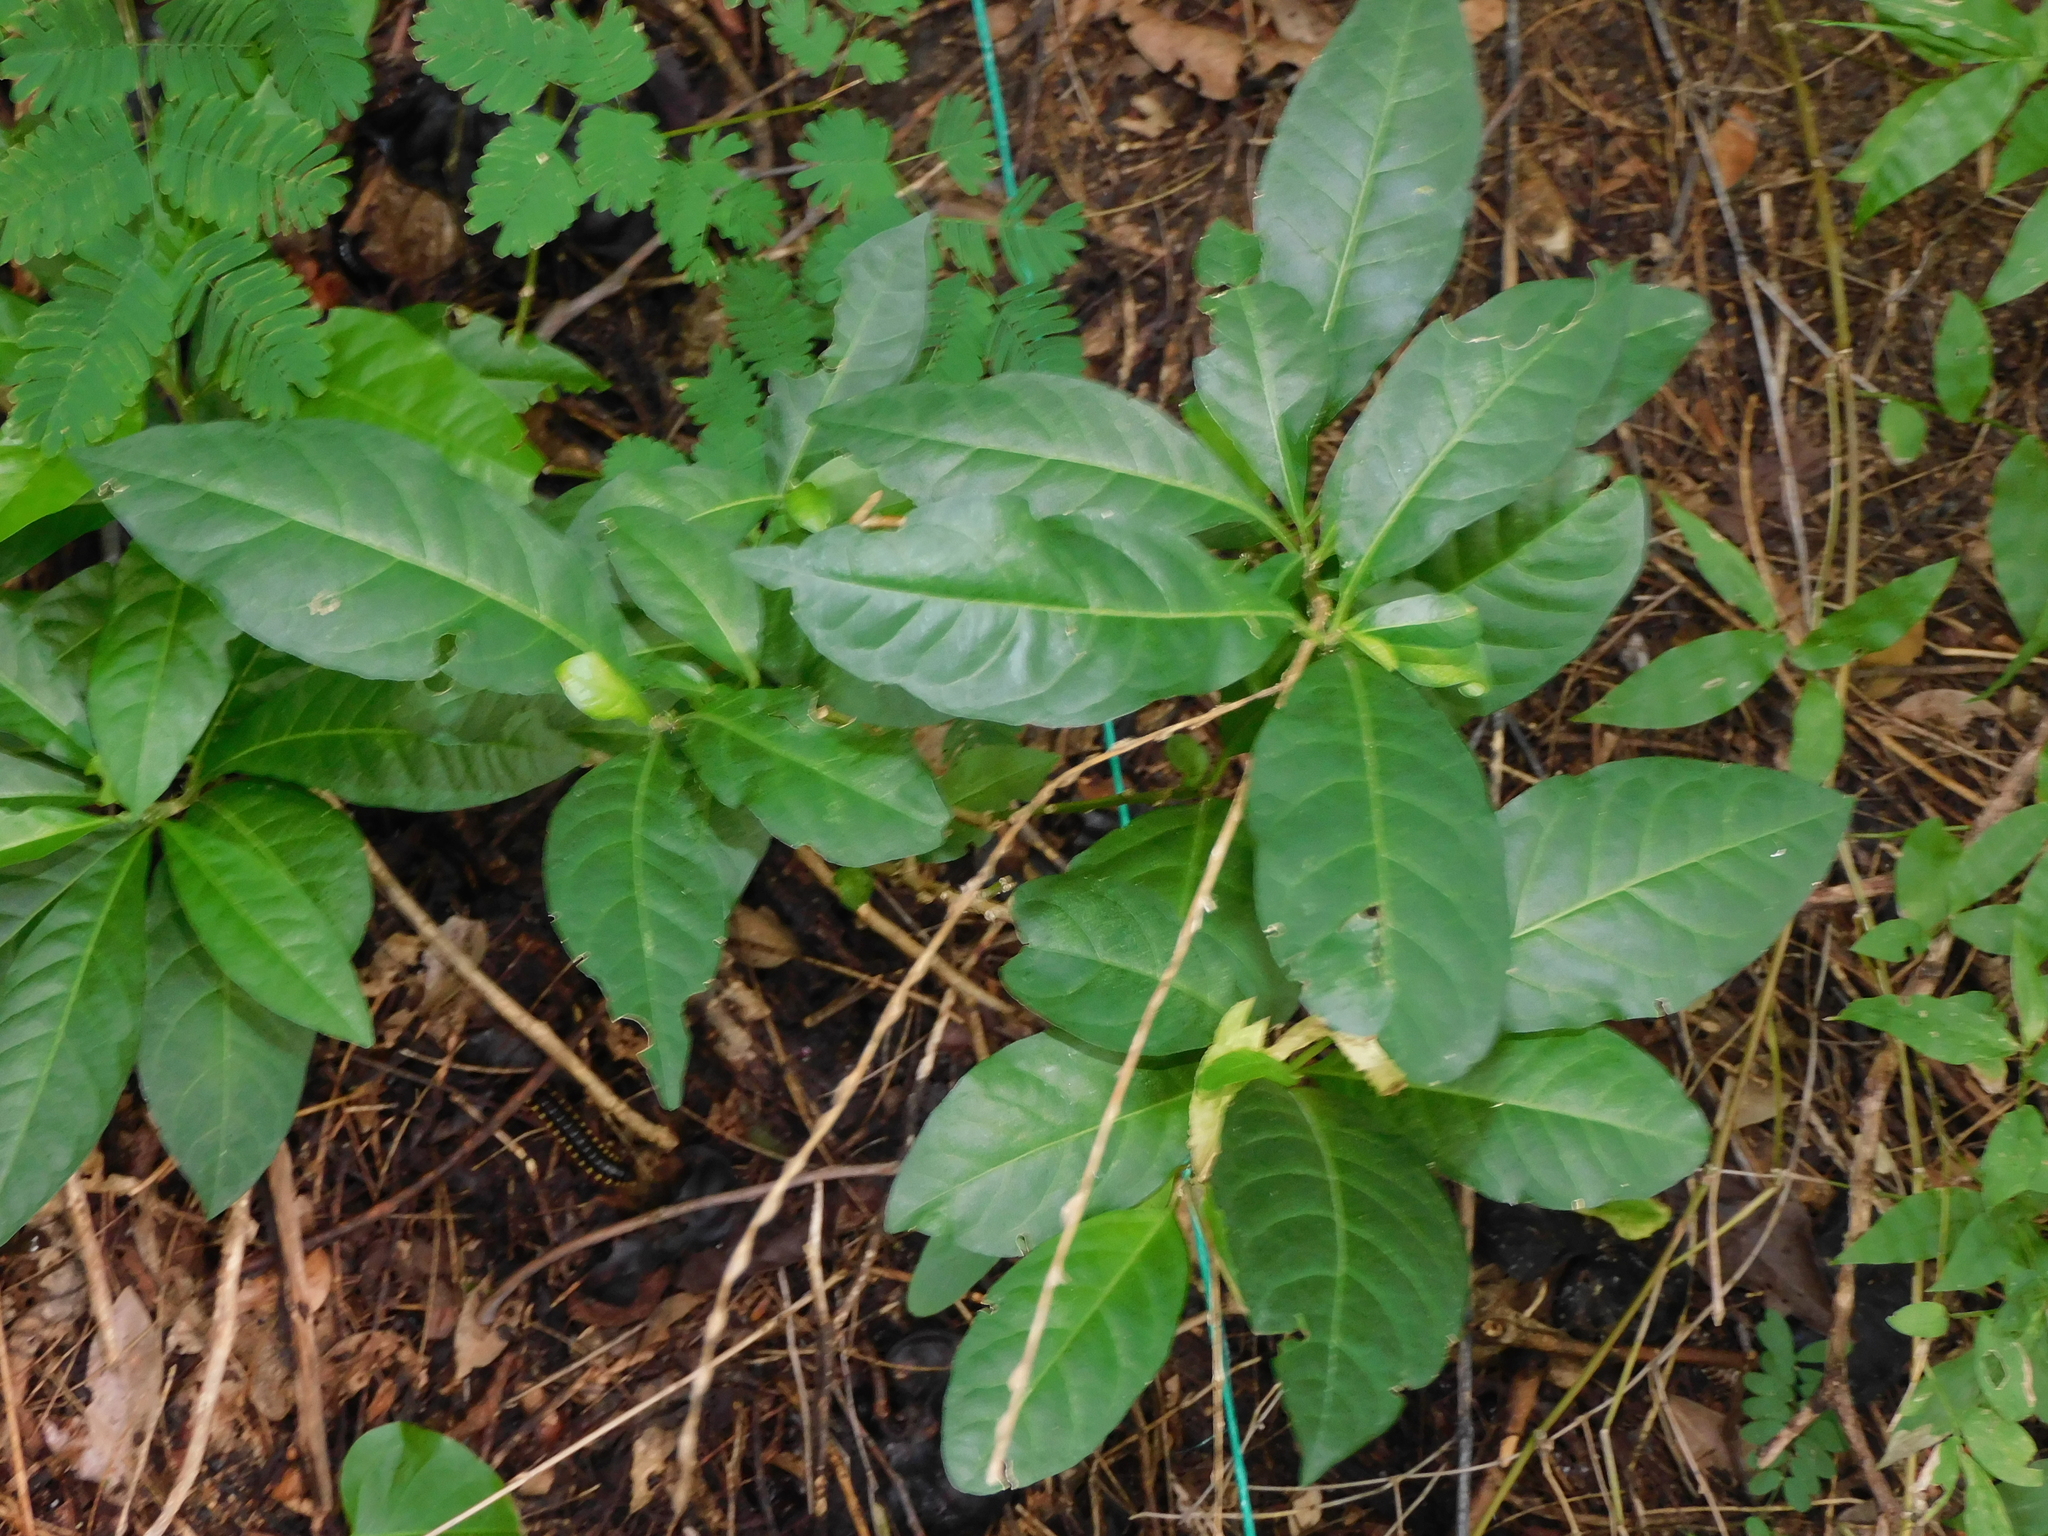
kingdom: Plantae
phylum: Tracheophyta
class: Magnoliopsida
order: Caryophyllales
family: Phytolaccaceae
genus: Petiveria
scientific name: Petiveria alliacea
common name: Garlicweed
